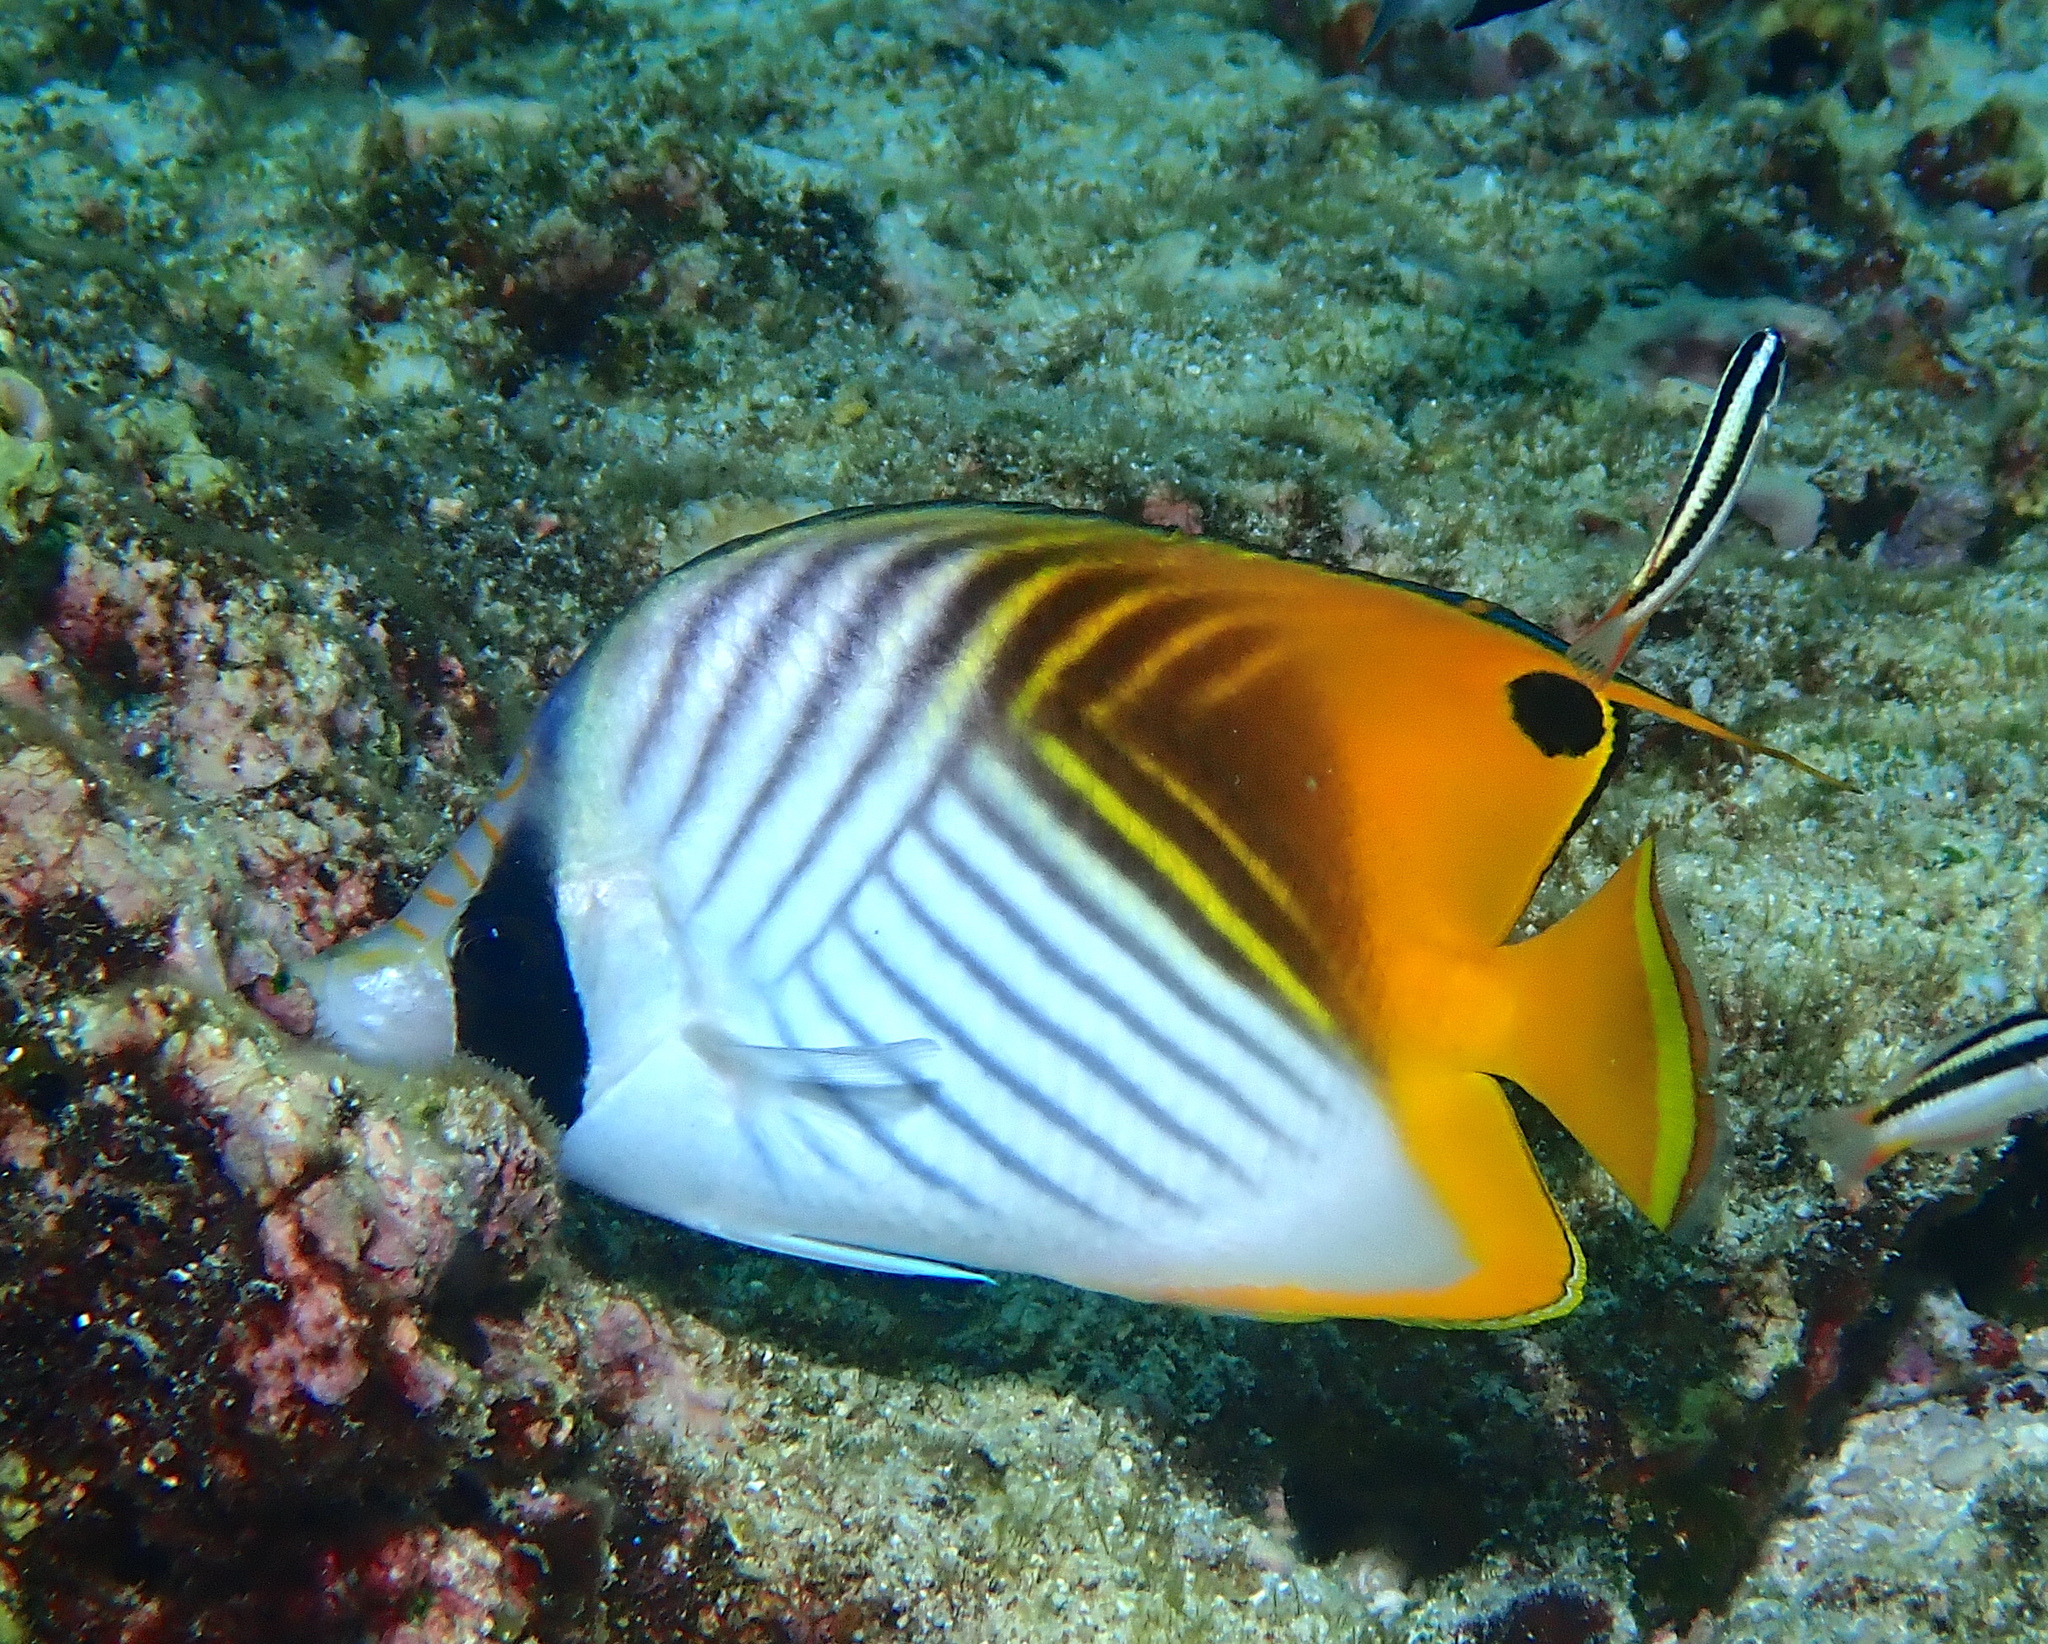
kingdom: Animalia
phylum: Chordata
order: Perciformes
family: Chaetodontidae
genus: Chaetodon
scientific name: Chaetodon auriga
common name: Threadfin butterflyfish
